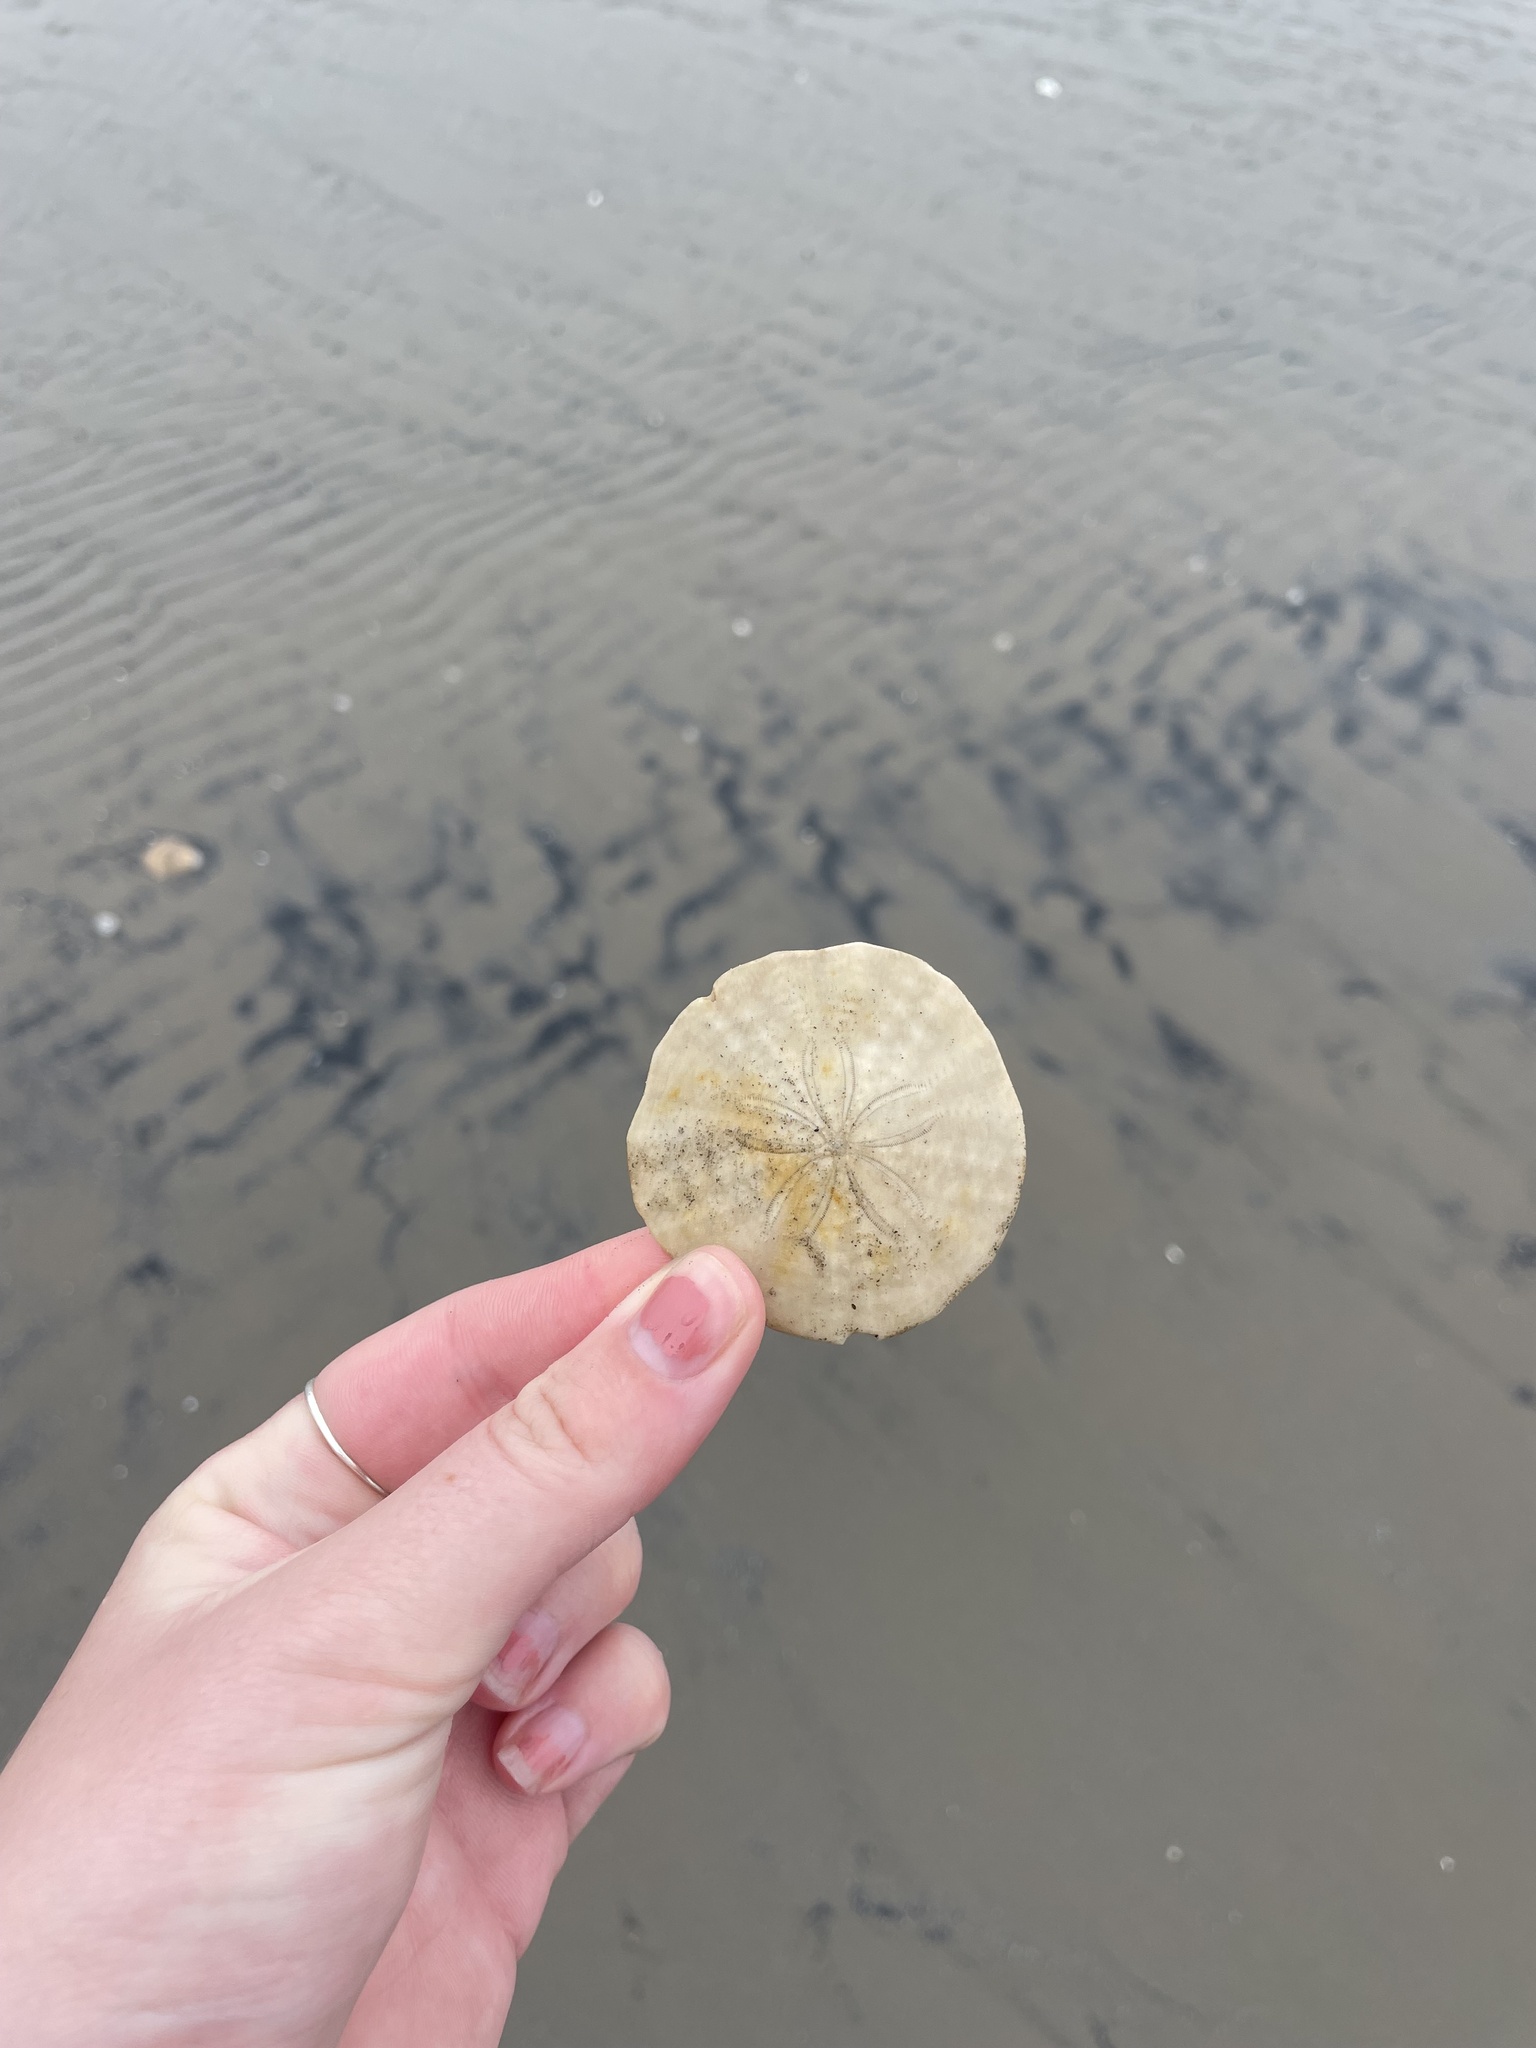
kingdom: Animalia
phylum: Echinodermata
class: Echinoidea
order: Echinolampadacea
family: Echinarachniidae
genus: Echinarachnius
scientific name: Echinarachnius parma
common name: Common sand dollar
